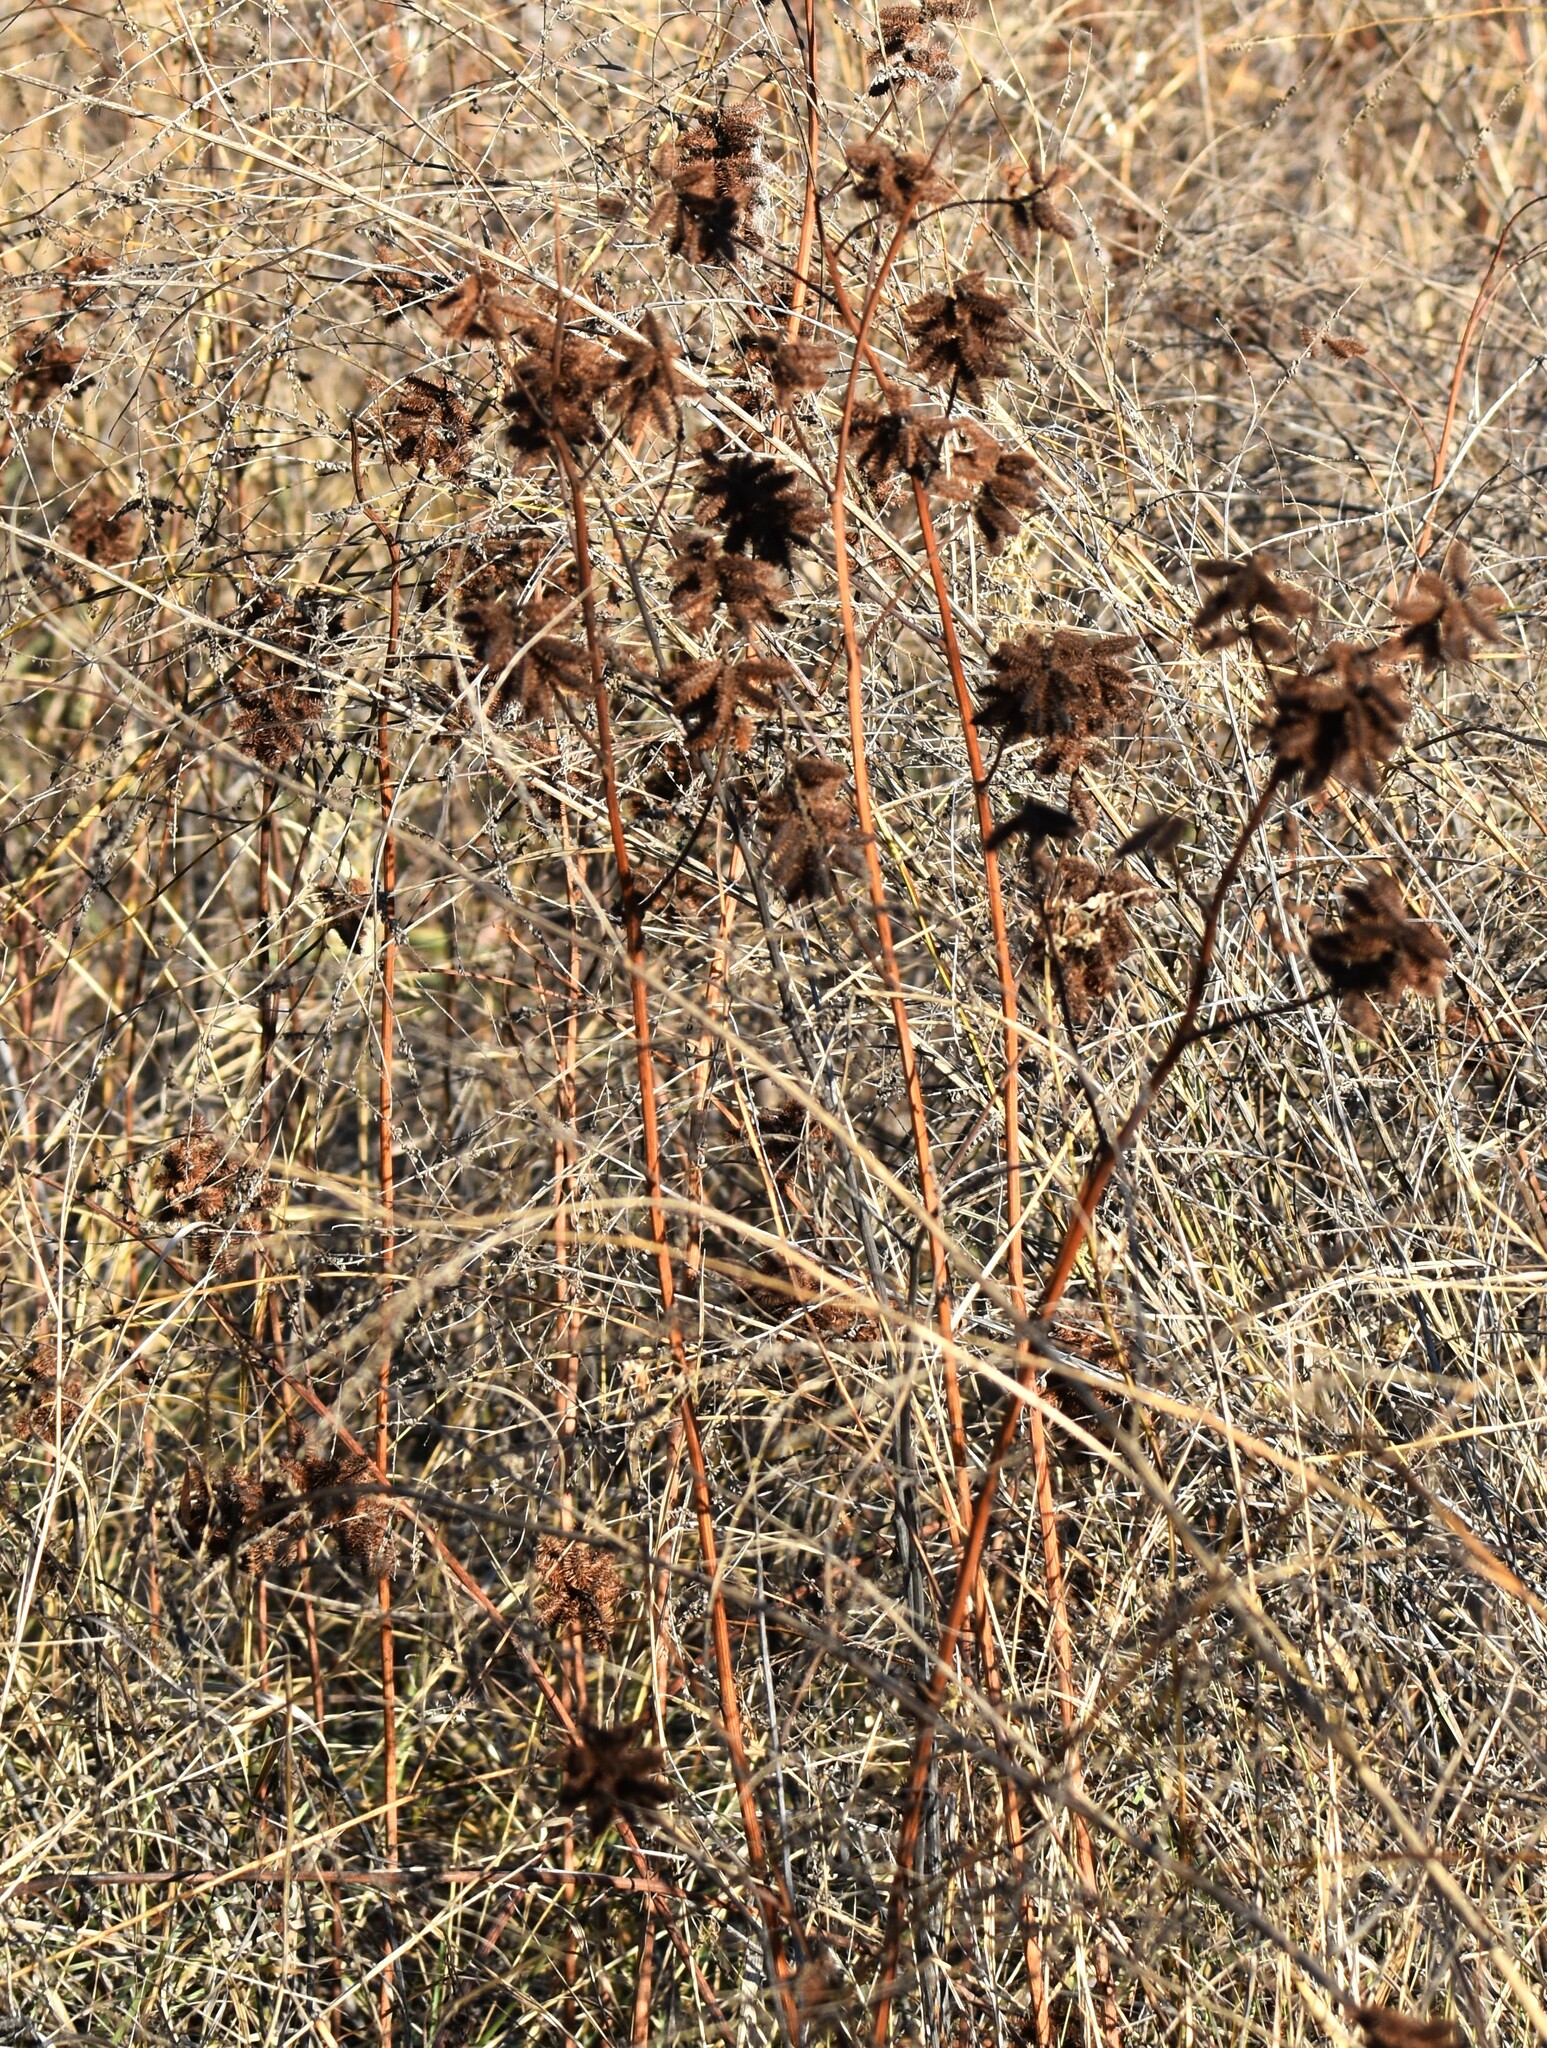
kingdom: Plantae
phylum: Tracheophyta
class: Magnoliopsida
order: Fabales
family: Fabaceae
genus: Glycyrrhiza
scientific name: Glycyrrhiza lepidota
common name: American liquorice
